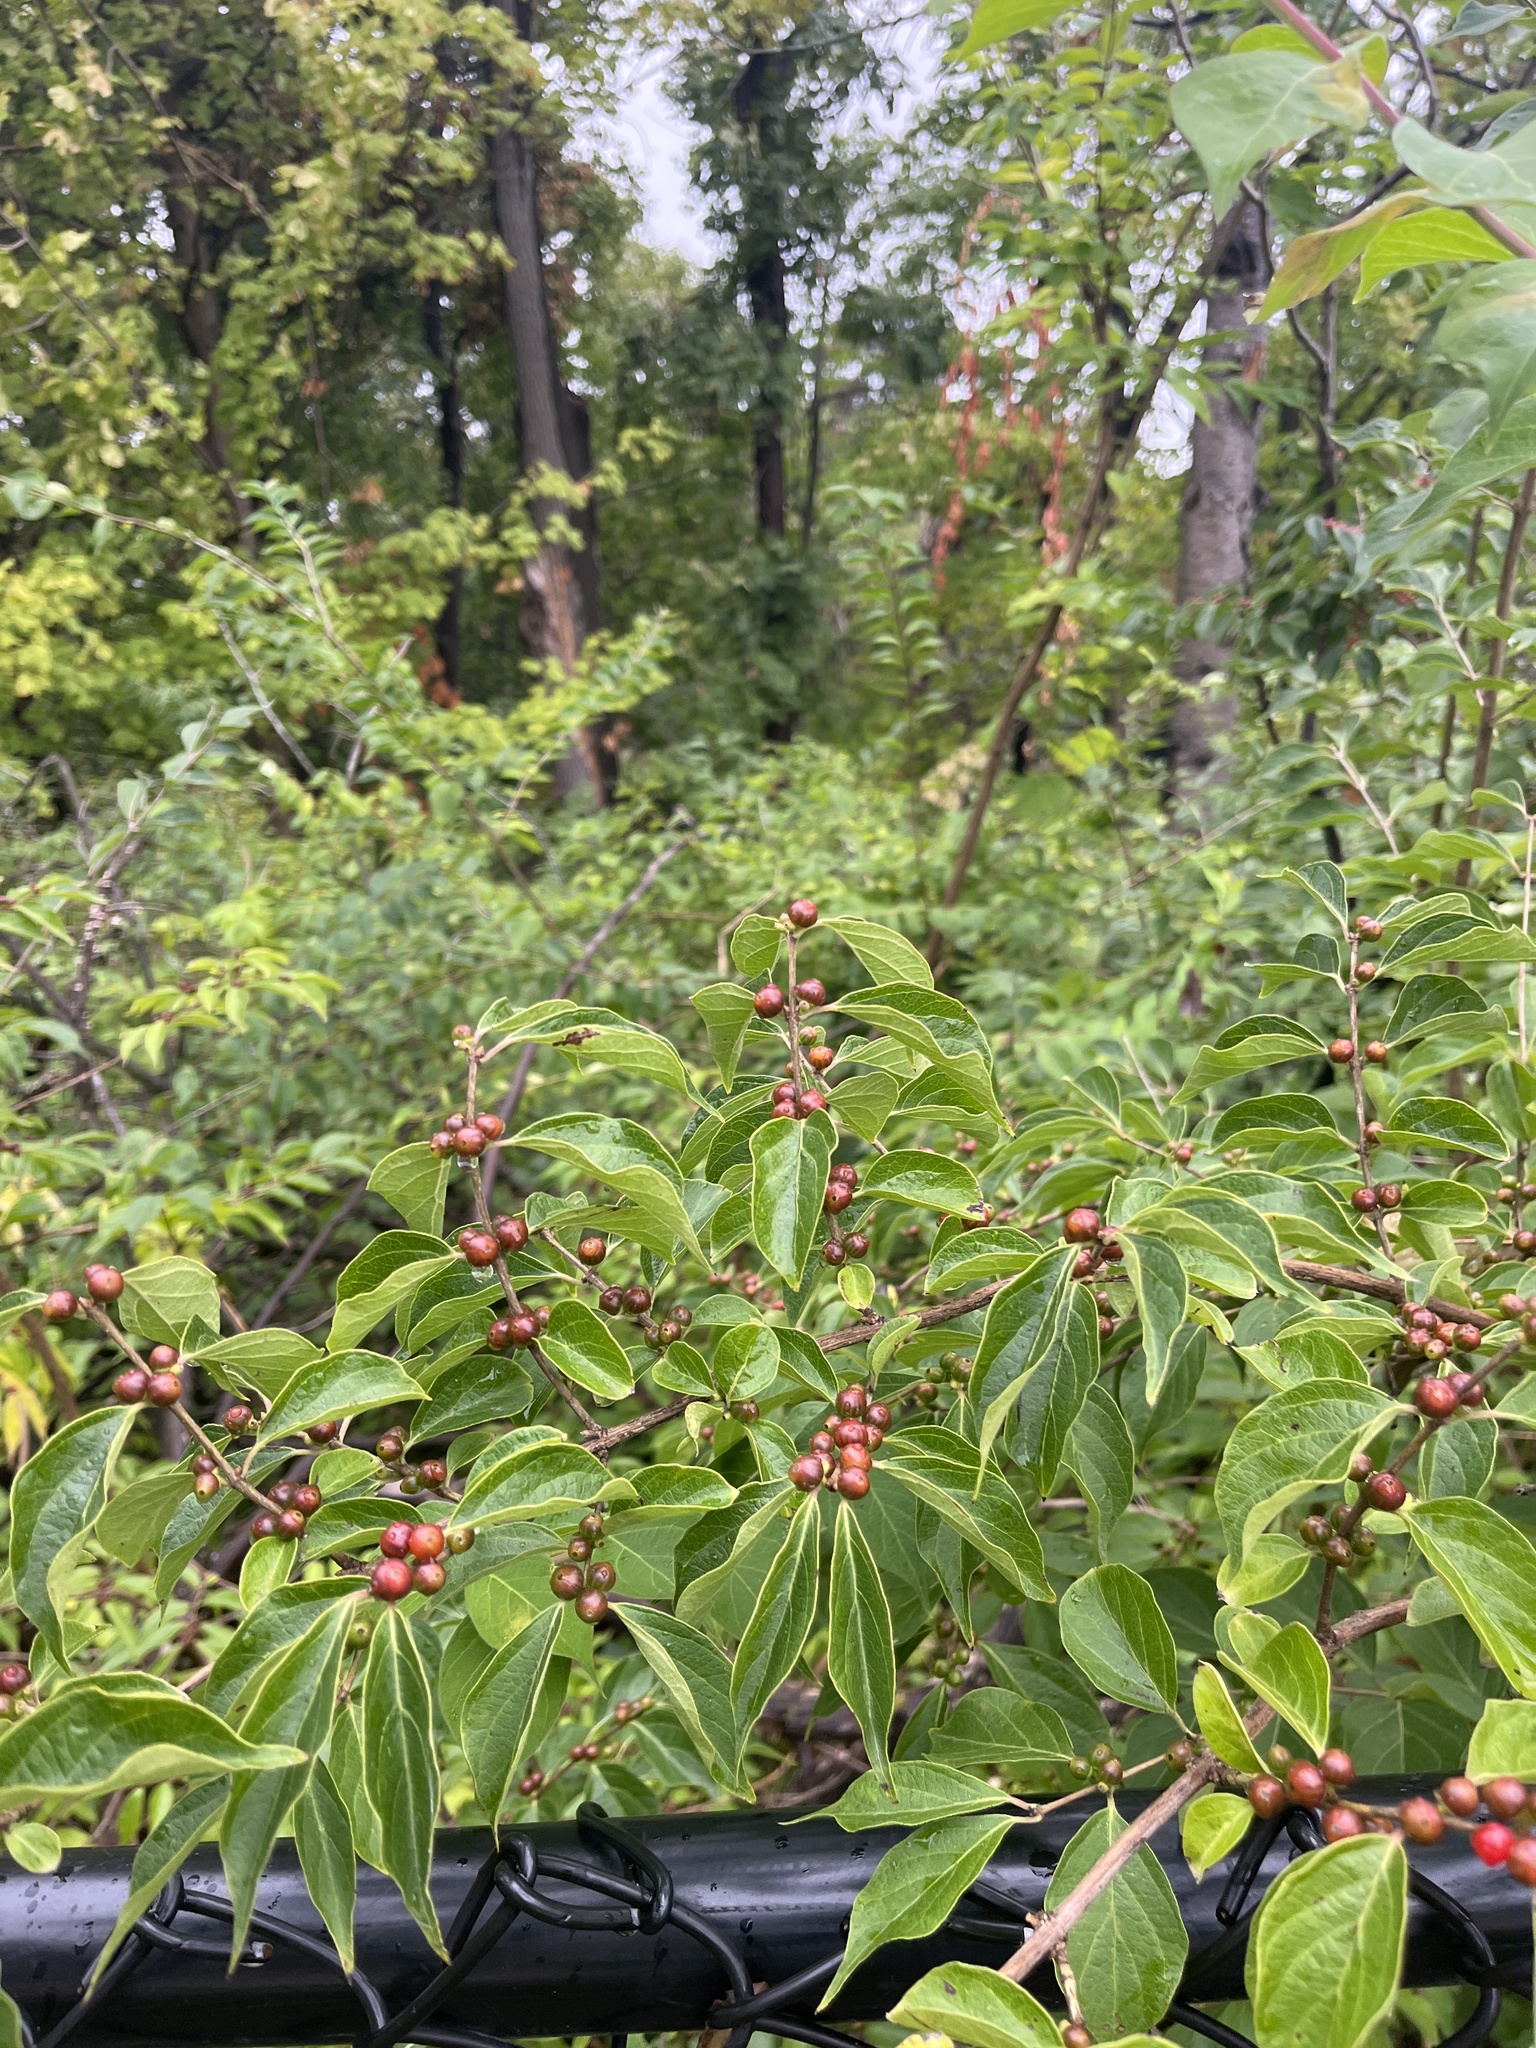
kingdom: Plantae
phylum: Tracheophyta
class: Magnoliopsida
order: Dipsacales
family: Caprifoliaceae
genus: Lonicera
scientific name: Lonicera maackii
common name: Amur honeysuckle
